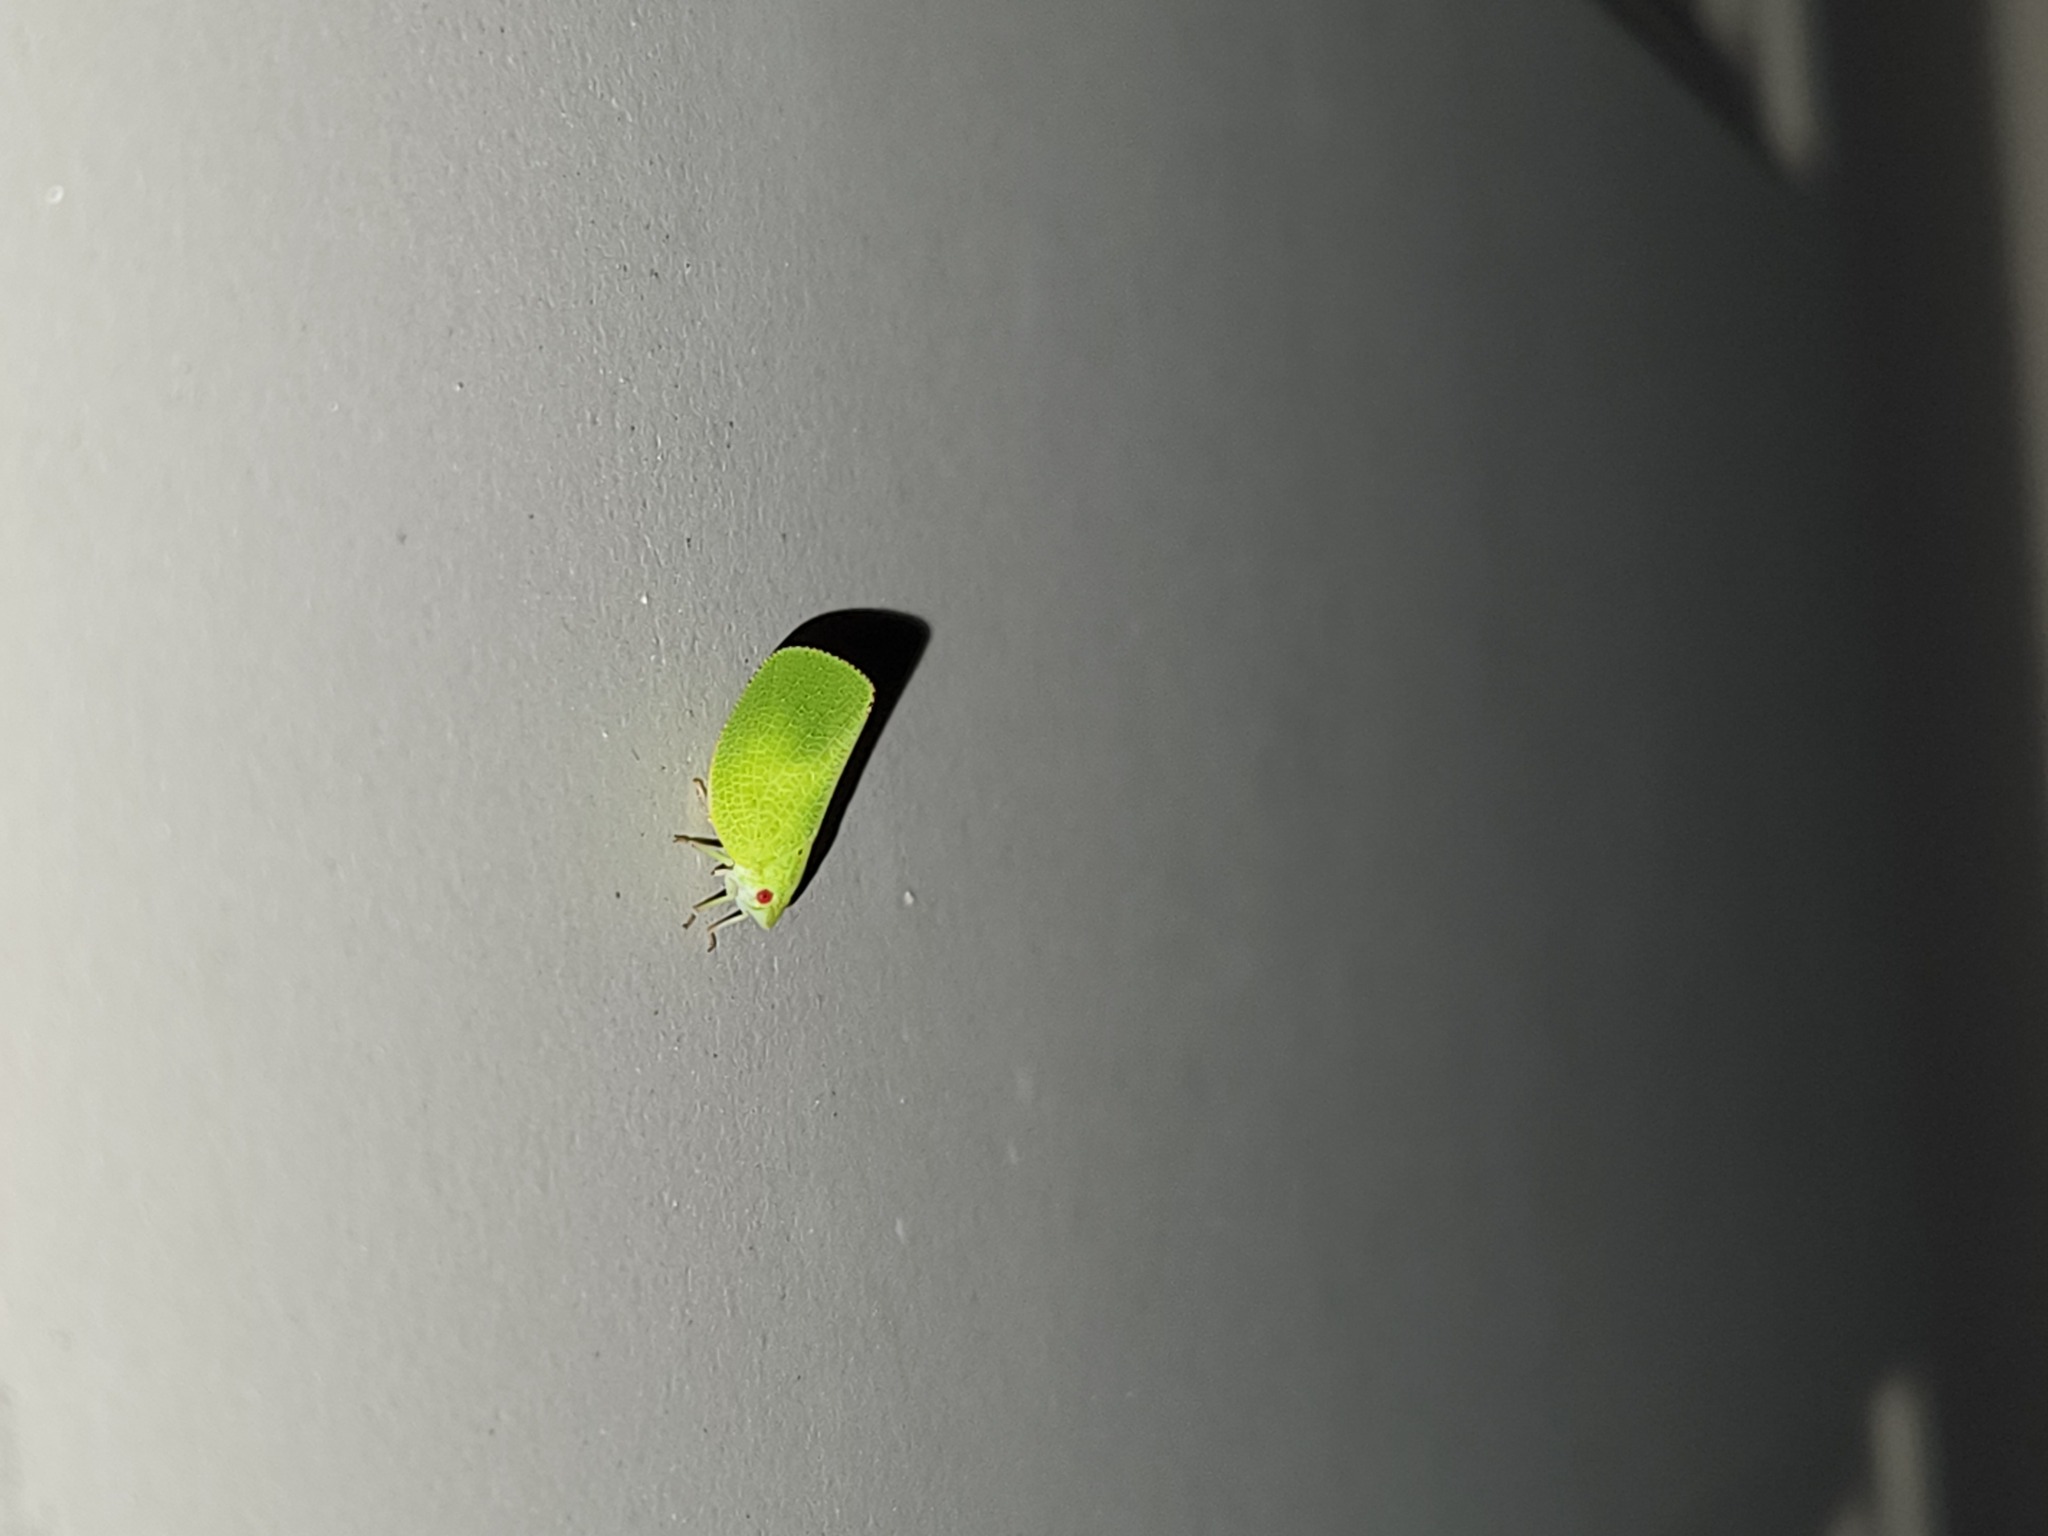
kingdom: Animalia
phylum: Arthropoda
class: Insecta
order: Hemiptera
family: Acanaloniidae
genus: Acanalonia
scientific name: Acanalonia conica
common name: Green cone-headed planthopper
